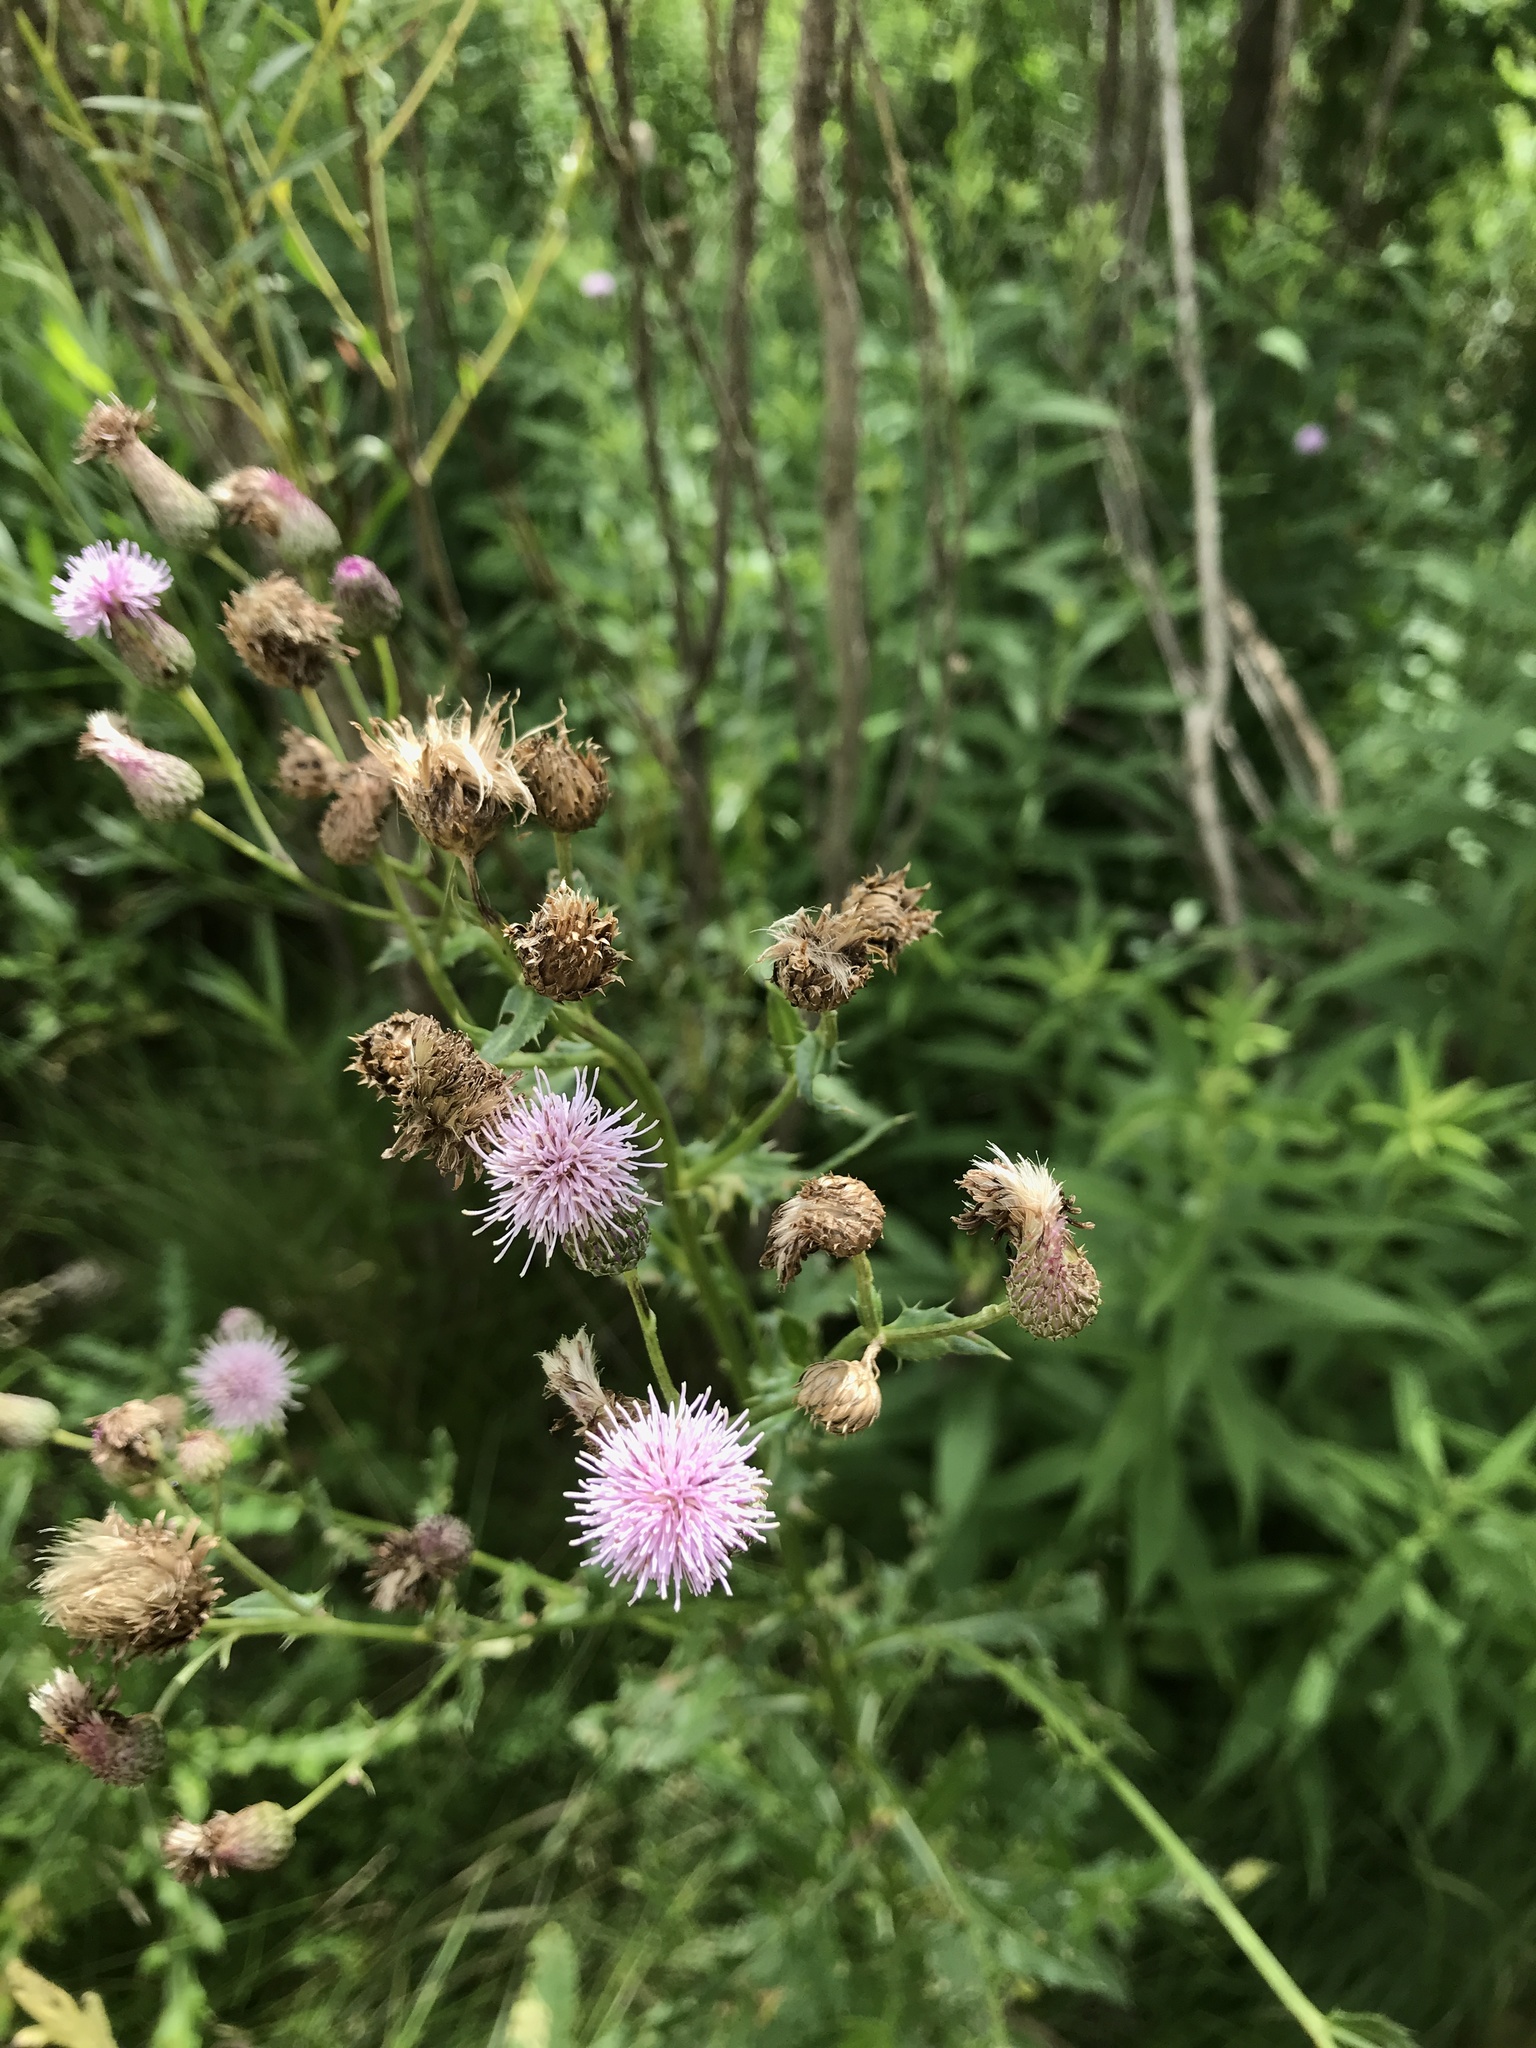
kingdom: Plantae
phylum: Tracheophyta
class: Magnoliopsida
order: Asterales
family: Asteraceae
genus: Cirsium
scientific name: Cirsium arvense
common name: Creeping thistle
